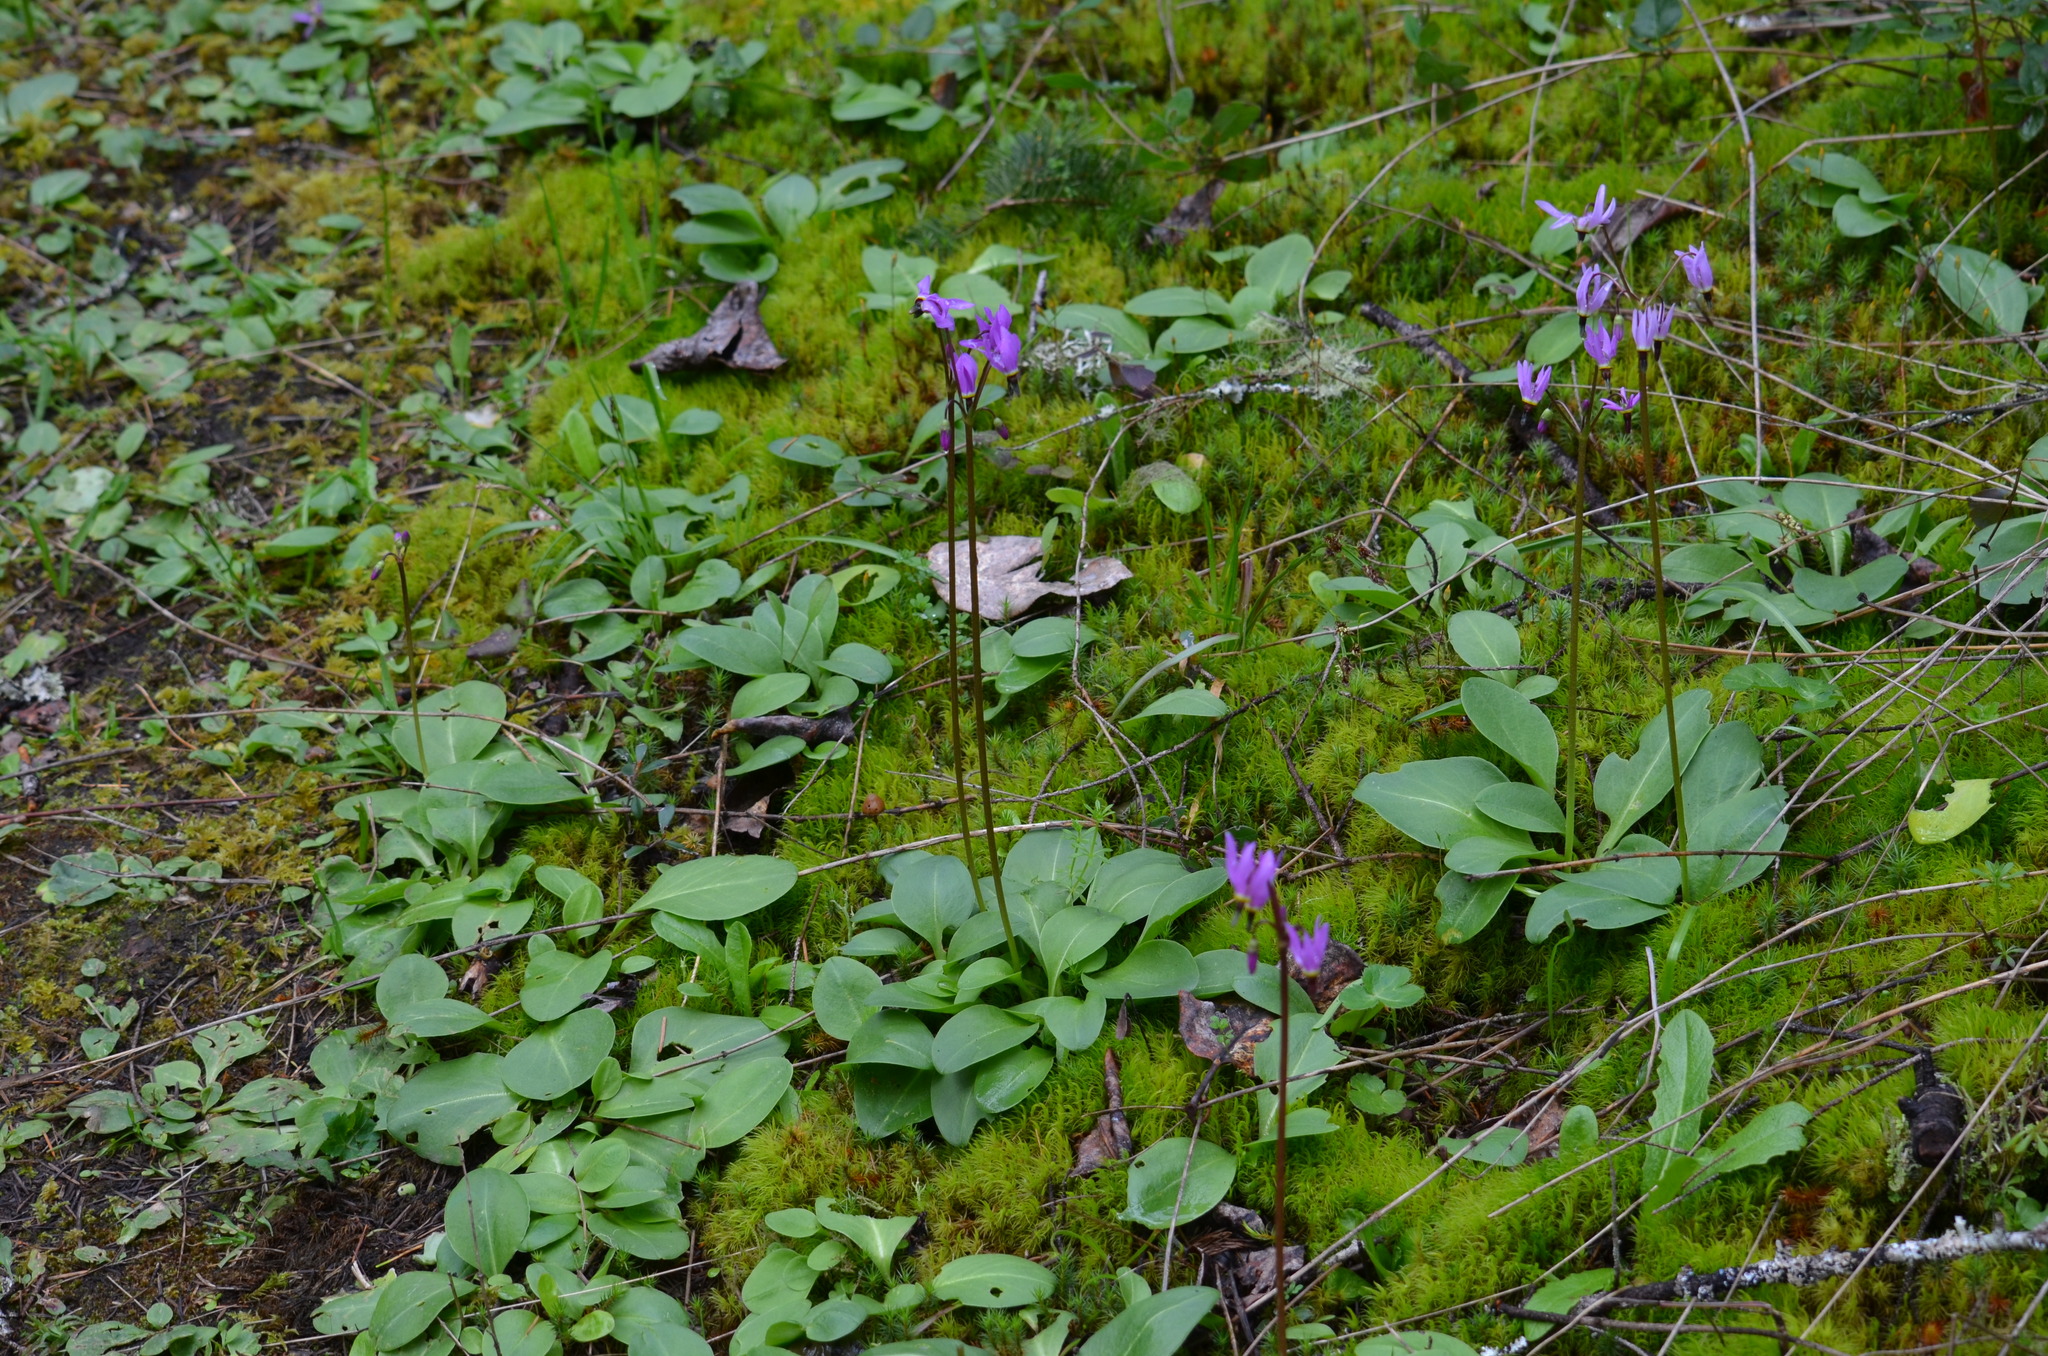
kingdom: Plantae
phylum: Tracheophyta
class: Magnoliopsida
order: Ericales
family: Primulaceae
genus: Dodecatheon
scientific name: Dodecatheon hendersonii
